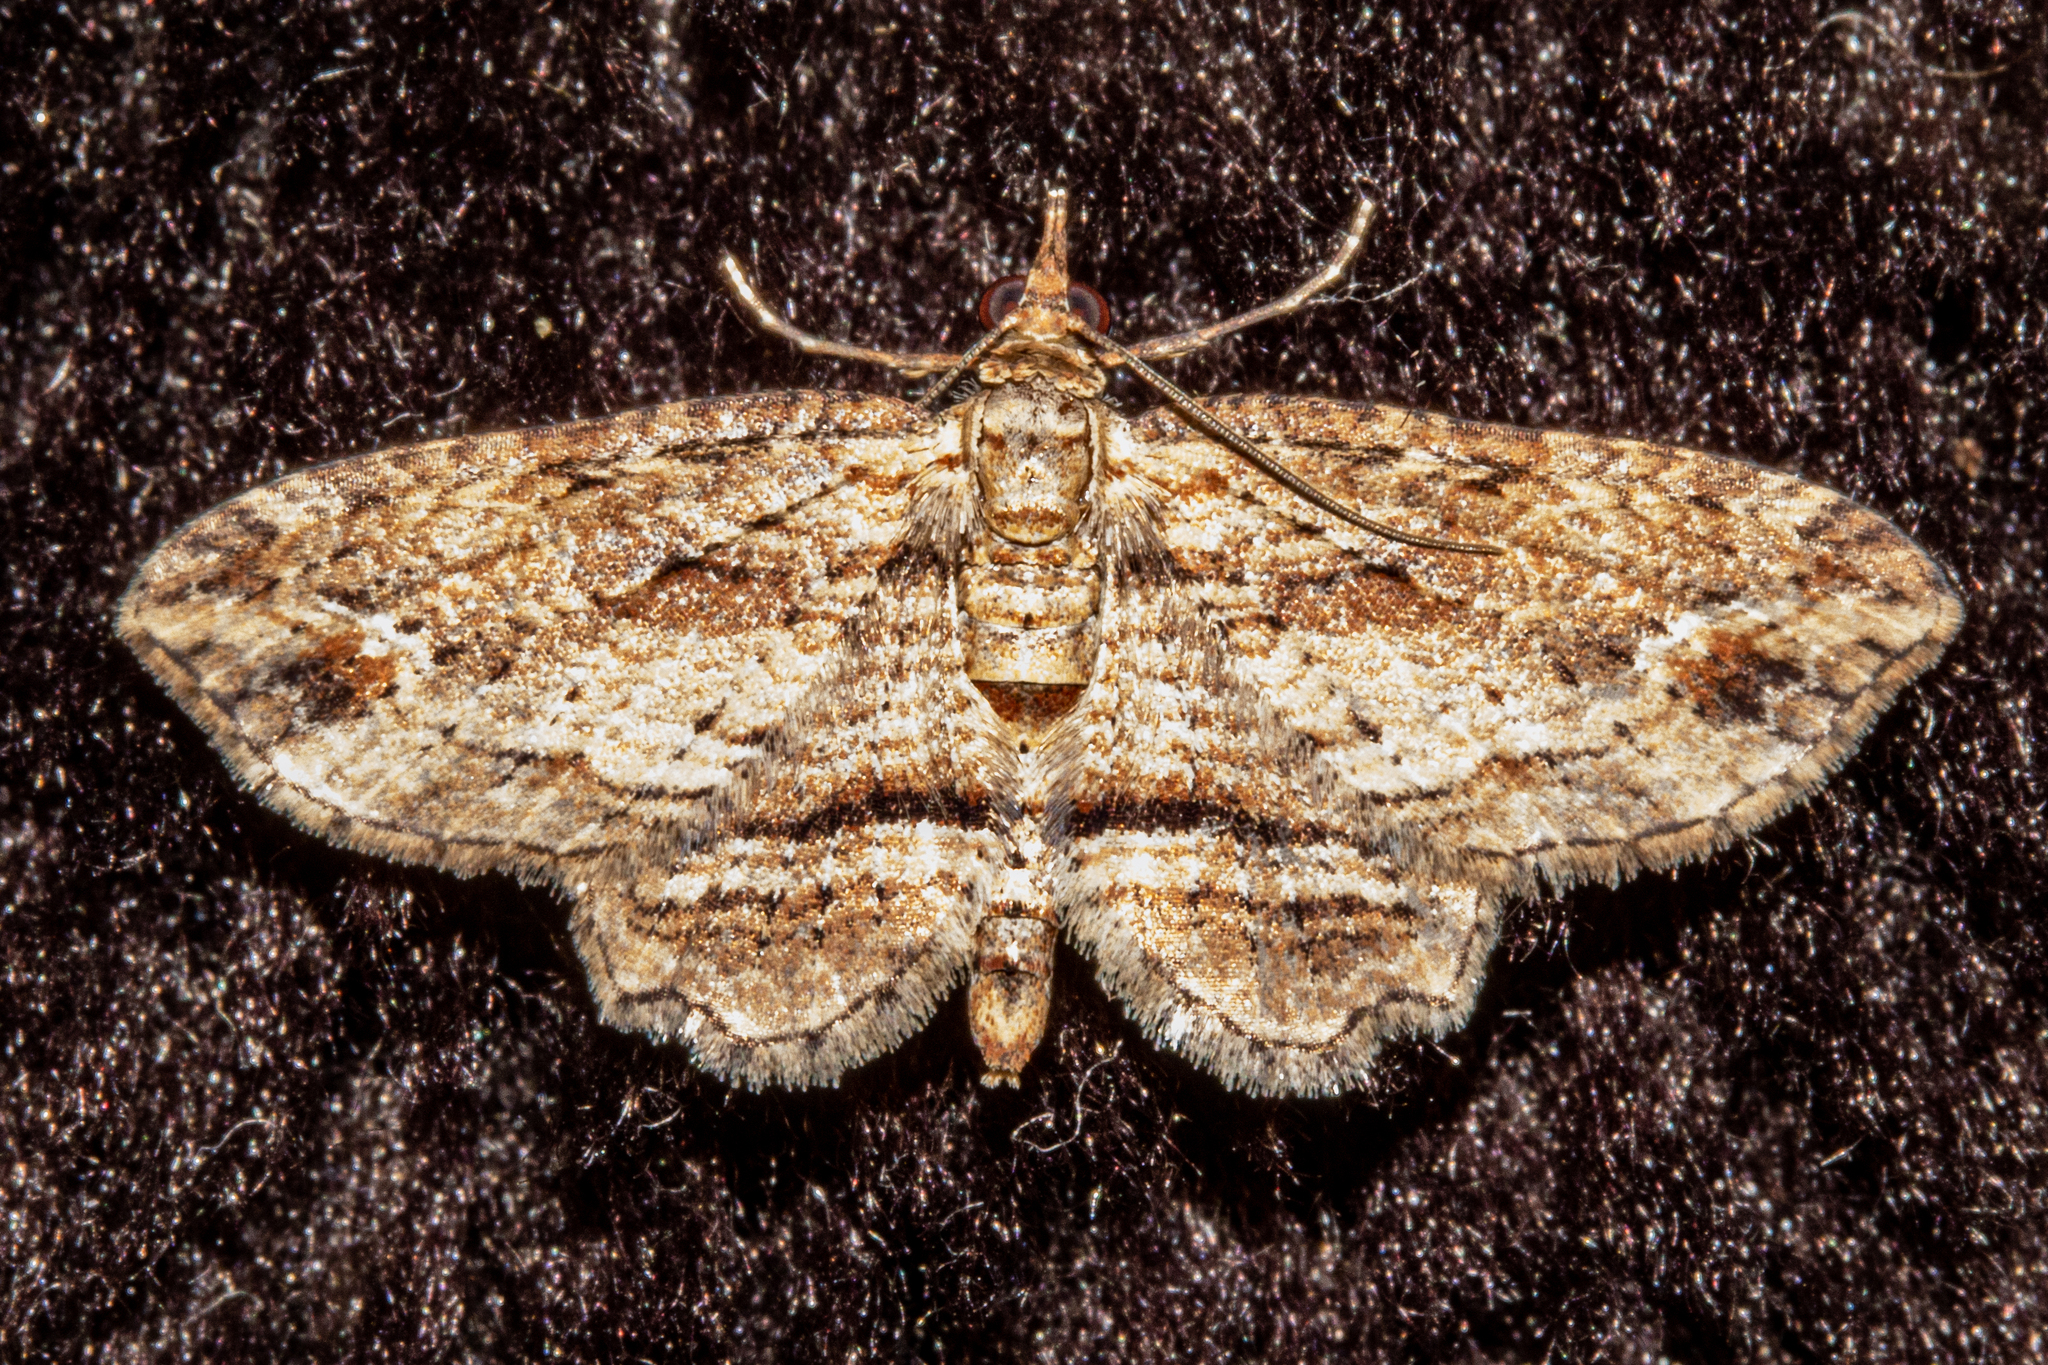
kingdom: Animalia
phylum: Arthropoda
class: Insecta
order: Lepidoptera
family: Geometridae
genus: Chloroclystis
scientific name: Chloroclystis filata
